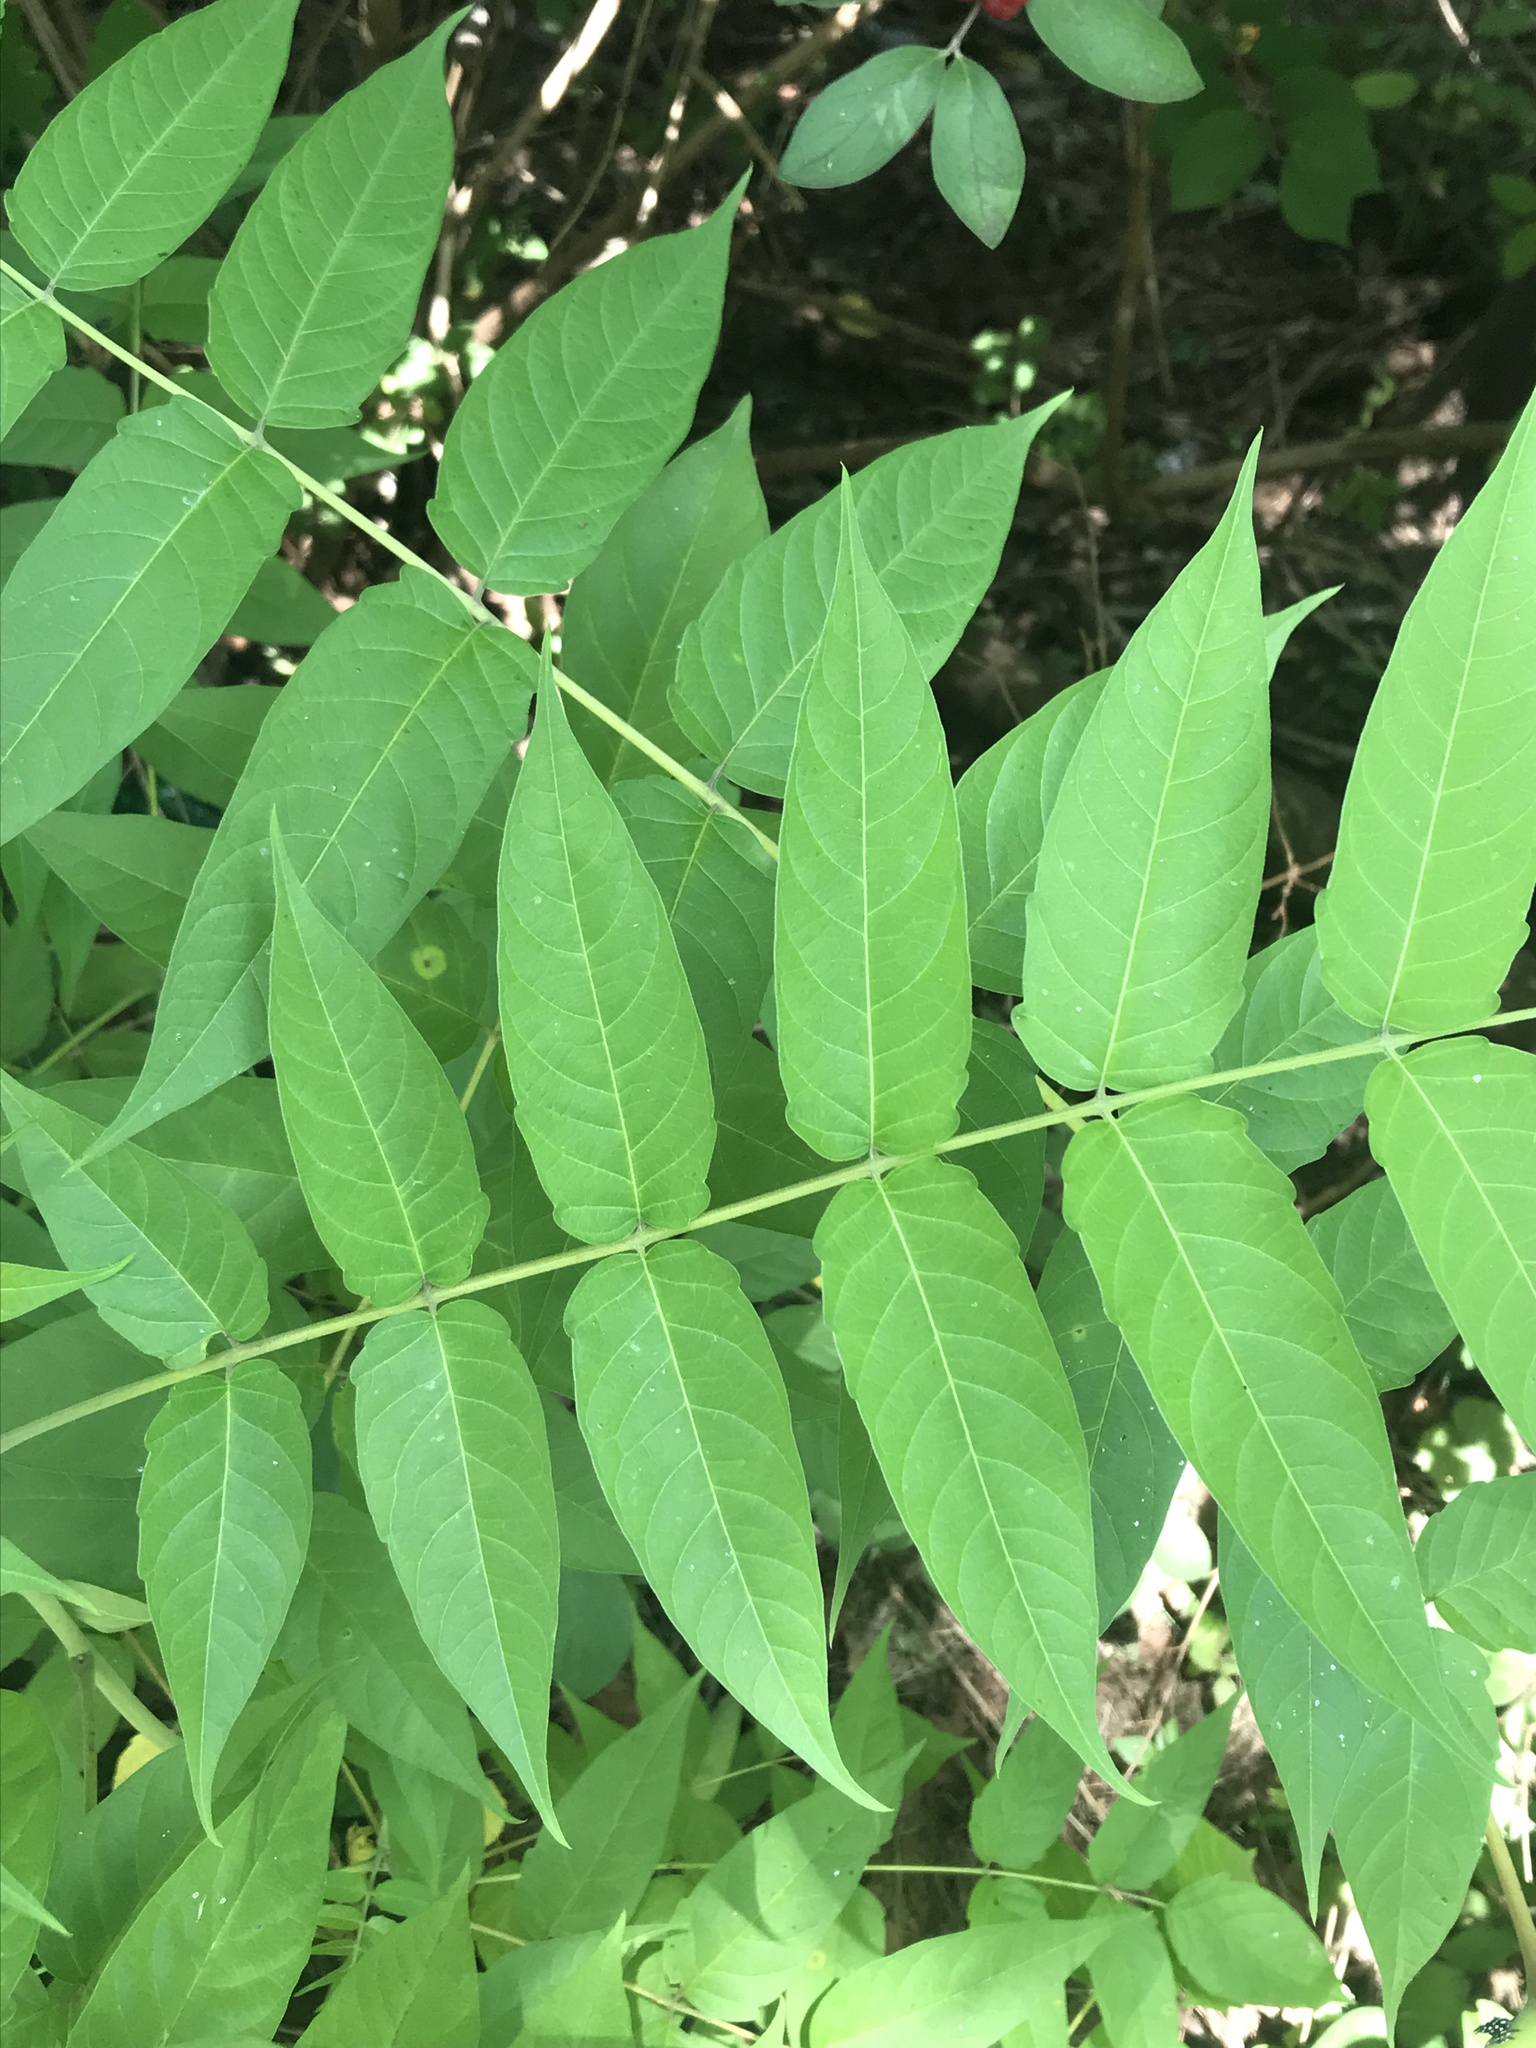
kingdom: Plantae
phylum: Tracheophyta
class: Magnoliopsida
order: Sapindales
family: Simaroubaceae
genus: Ailanthus
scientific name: Ailanthus altissima
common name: Tree-of-heaven
